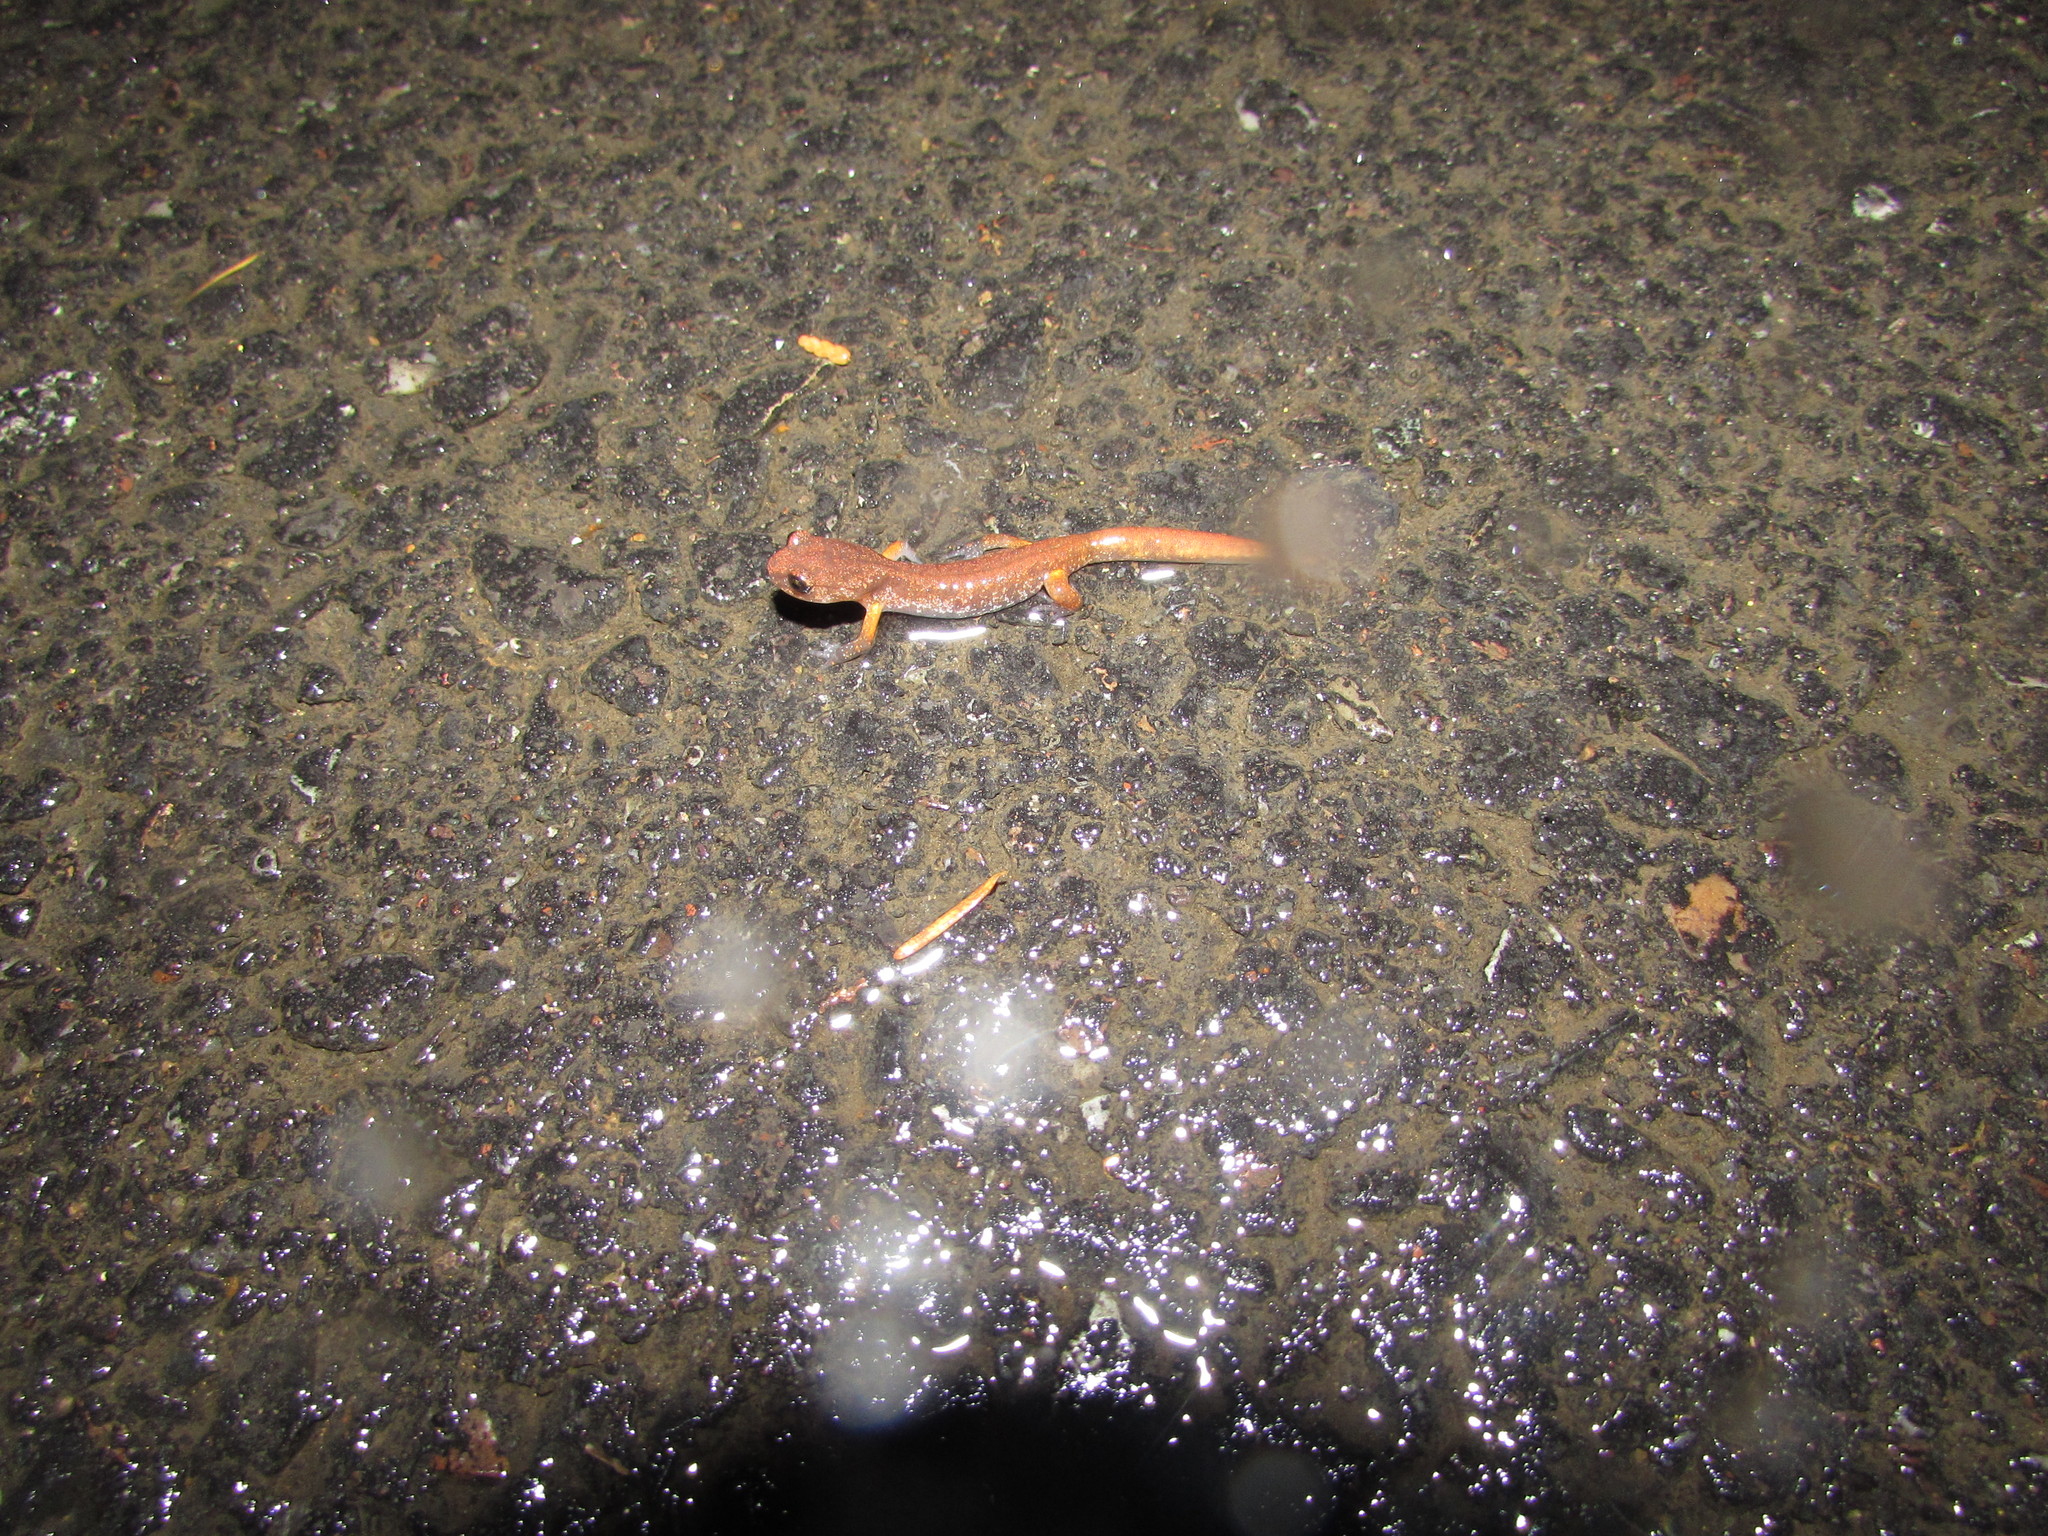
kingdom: Animalia
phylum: Chordata
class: Amphibia
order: Caudata
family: Plethodontidae
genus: Ensatina
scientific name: Ensatina eschscholtzii
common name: Ensatina
